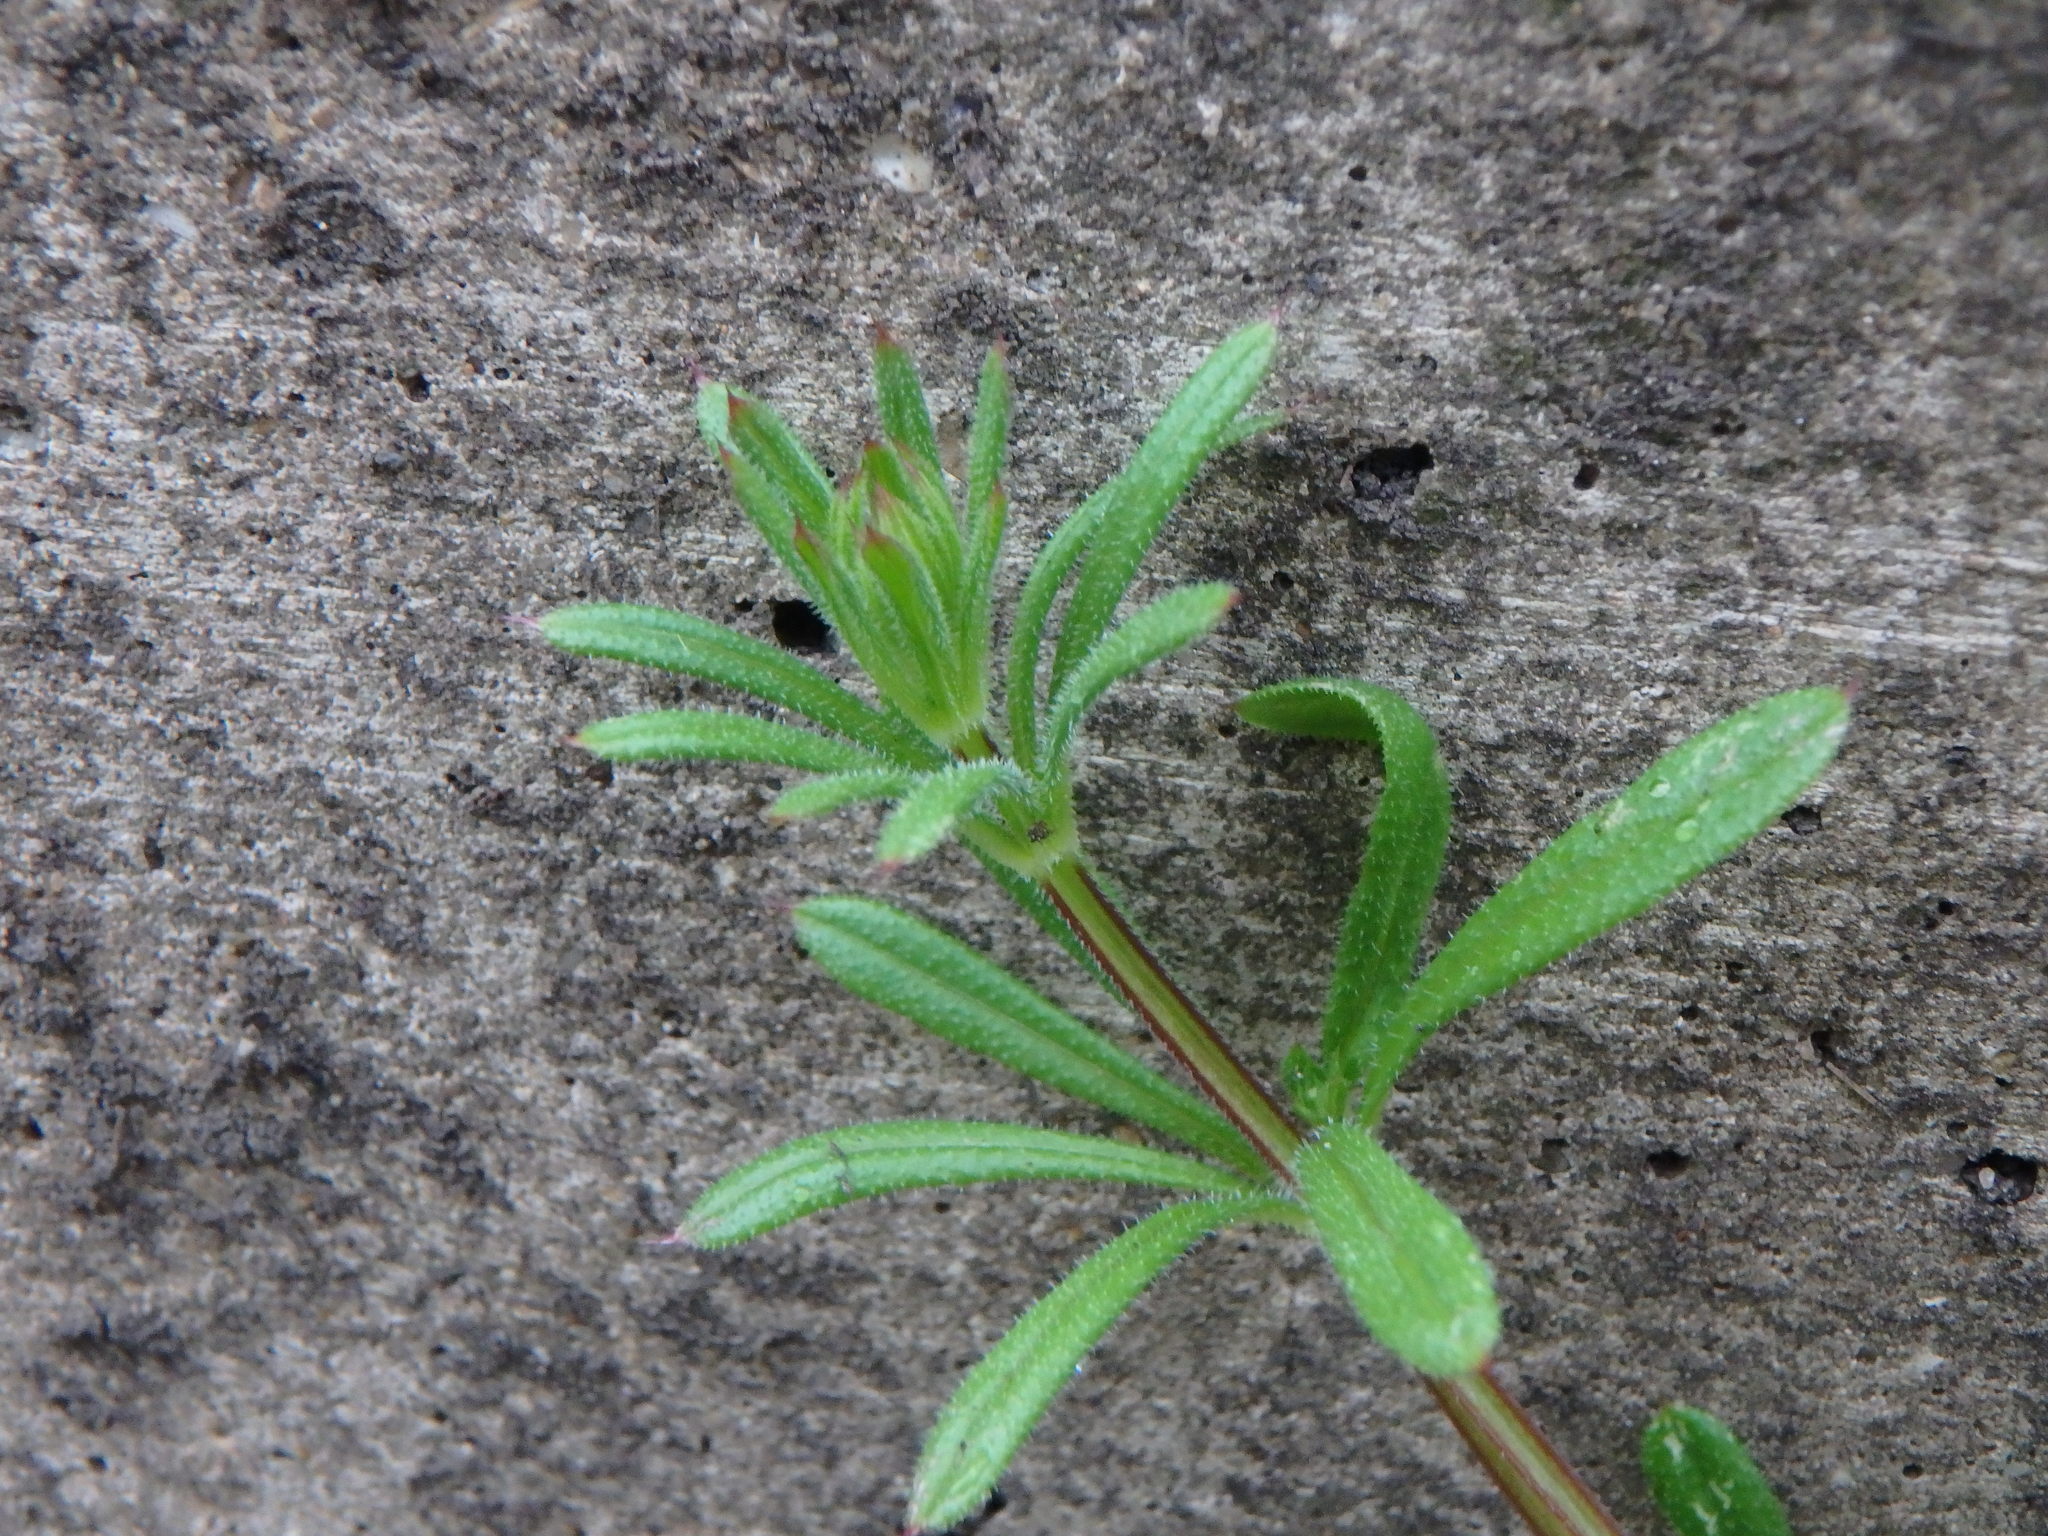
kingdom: Plantae
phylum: Tracheophyta
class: Magnoliopsida
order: Gentianales
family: Rubiaceae
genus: Galium
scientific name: Galium aparine
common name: Cleavers
